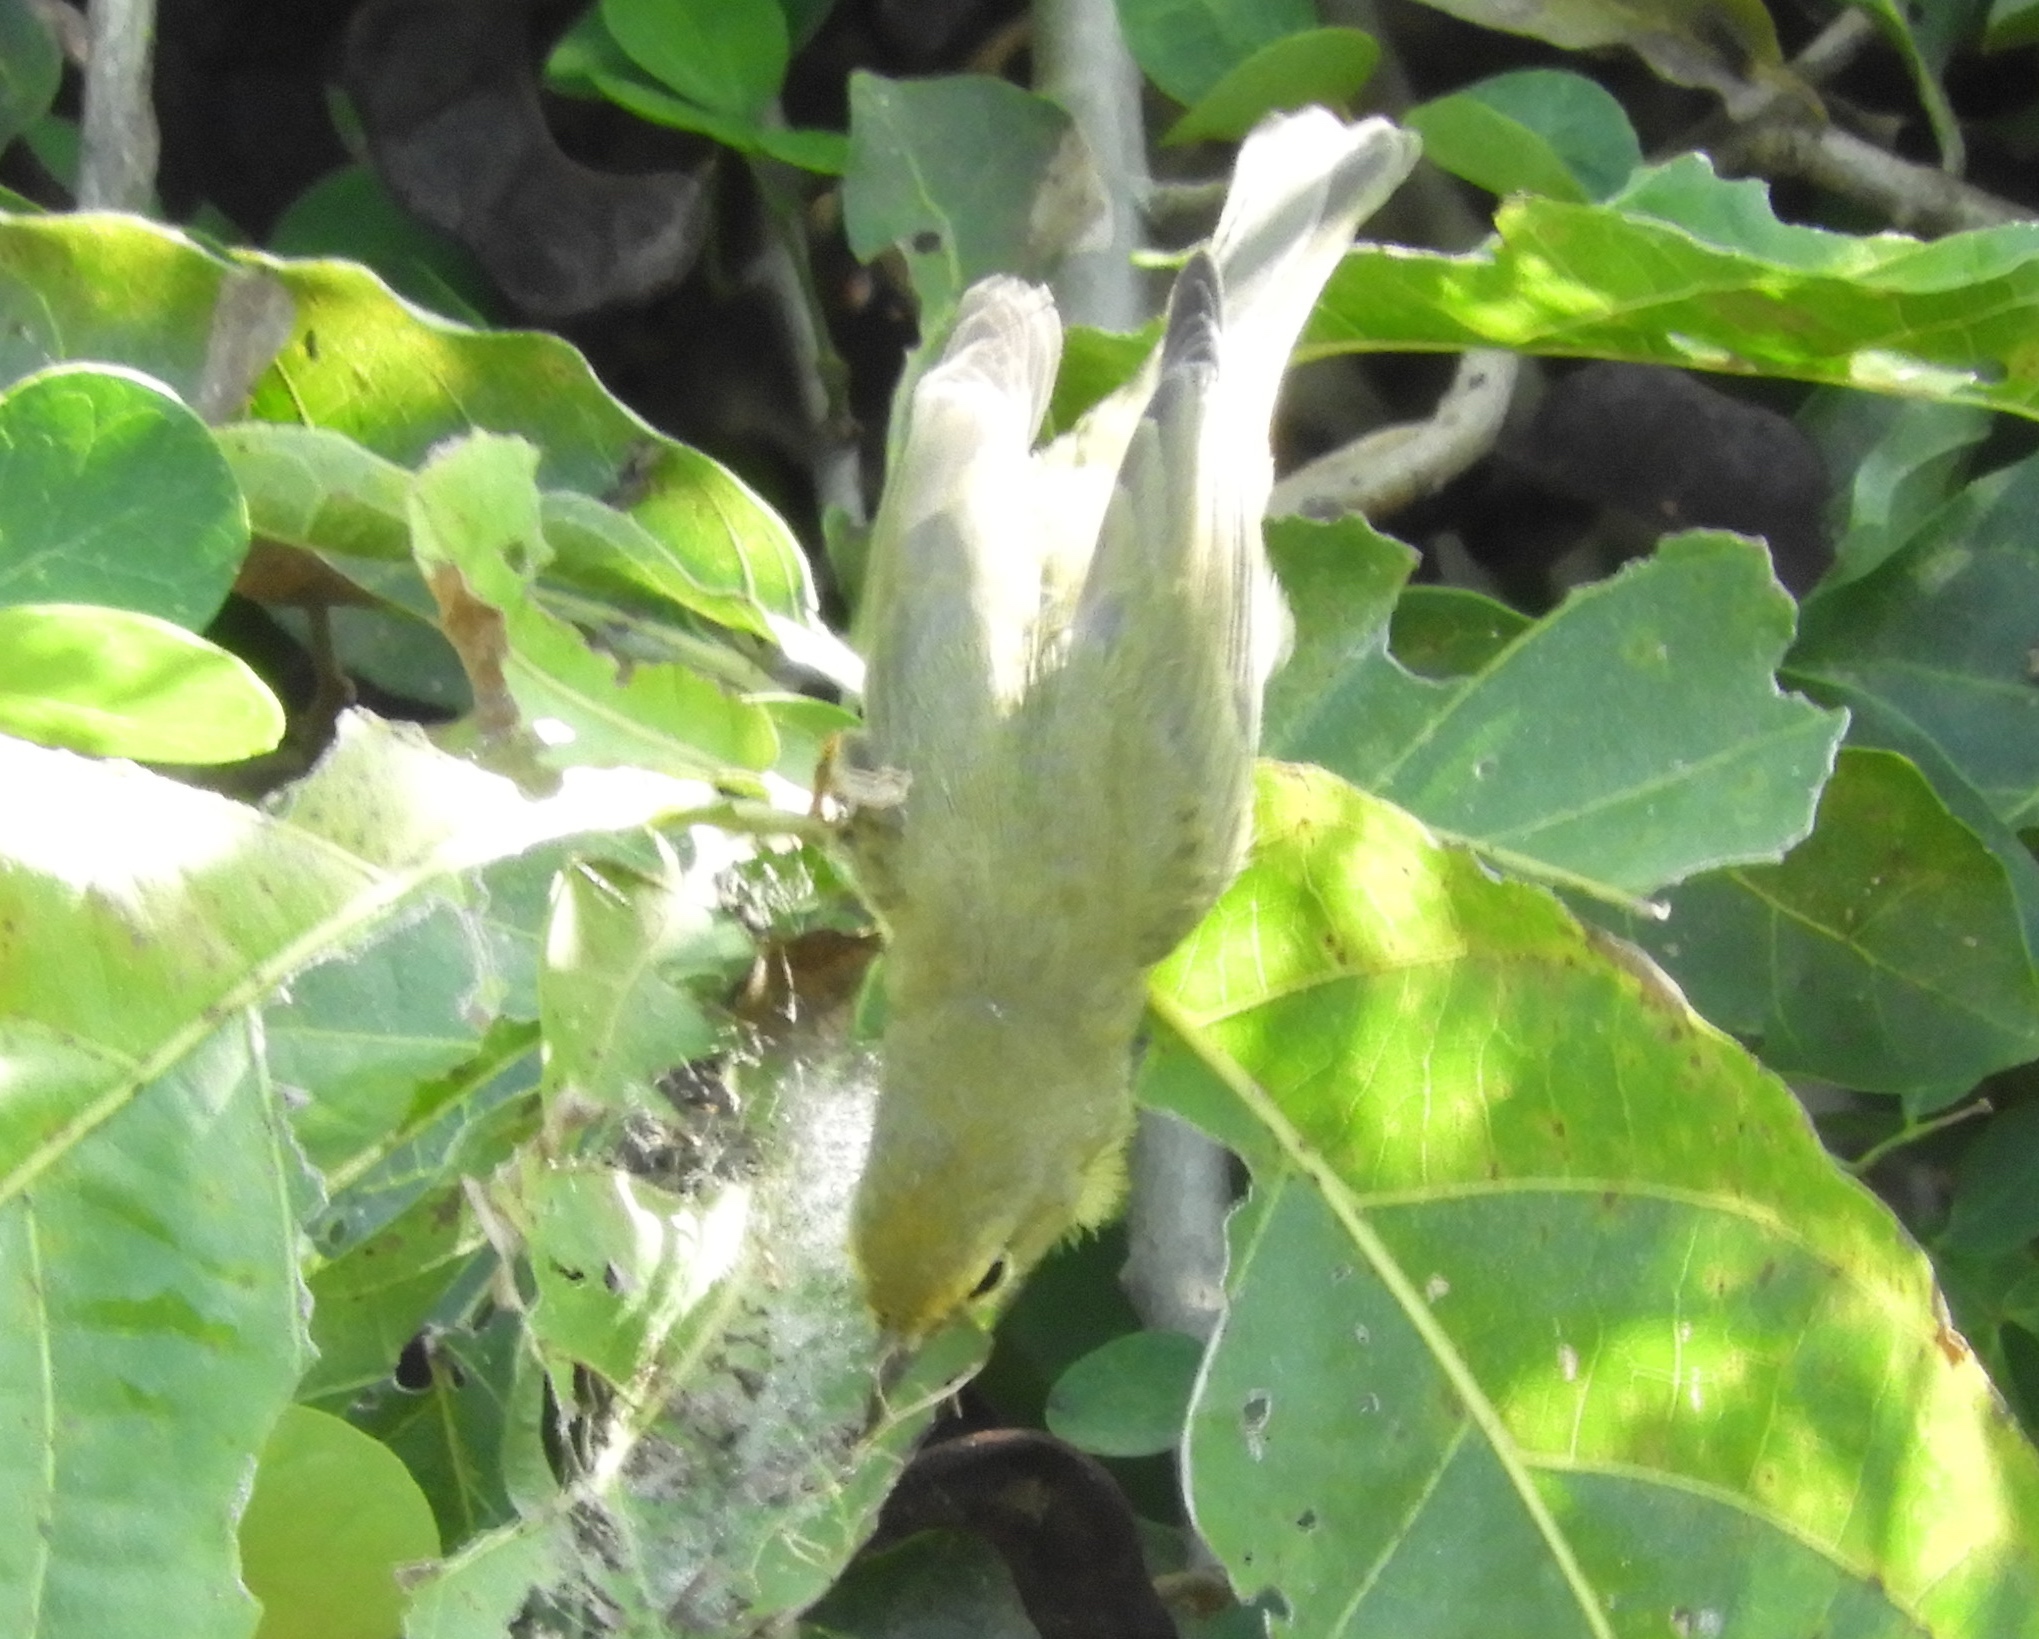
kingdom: Animalia
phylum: Chordata
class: Aves
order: Passeriformes
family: Parulidae
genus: Leiothlypis
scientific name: Leiothlypis celata
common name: Orange-crowned warbler
